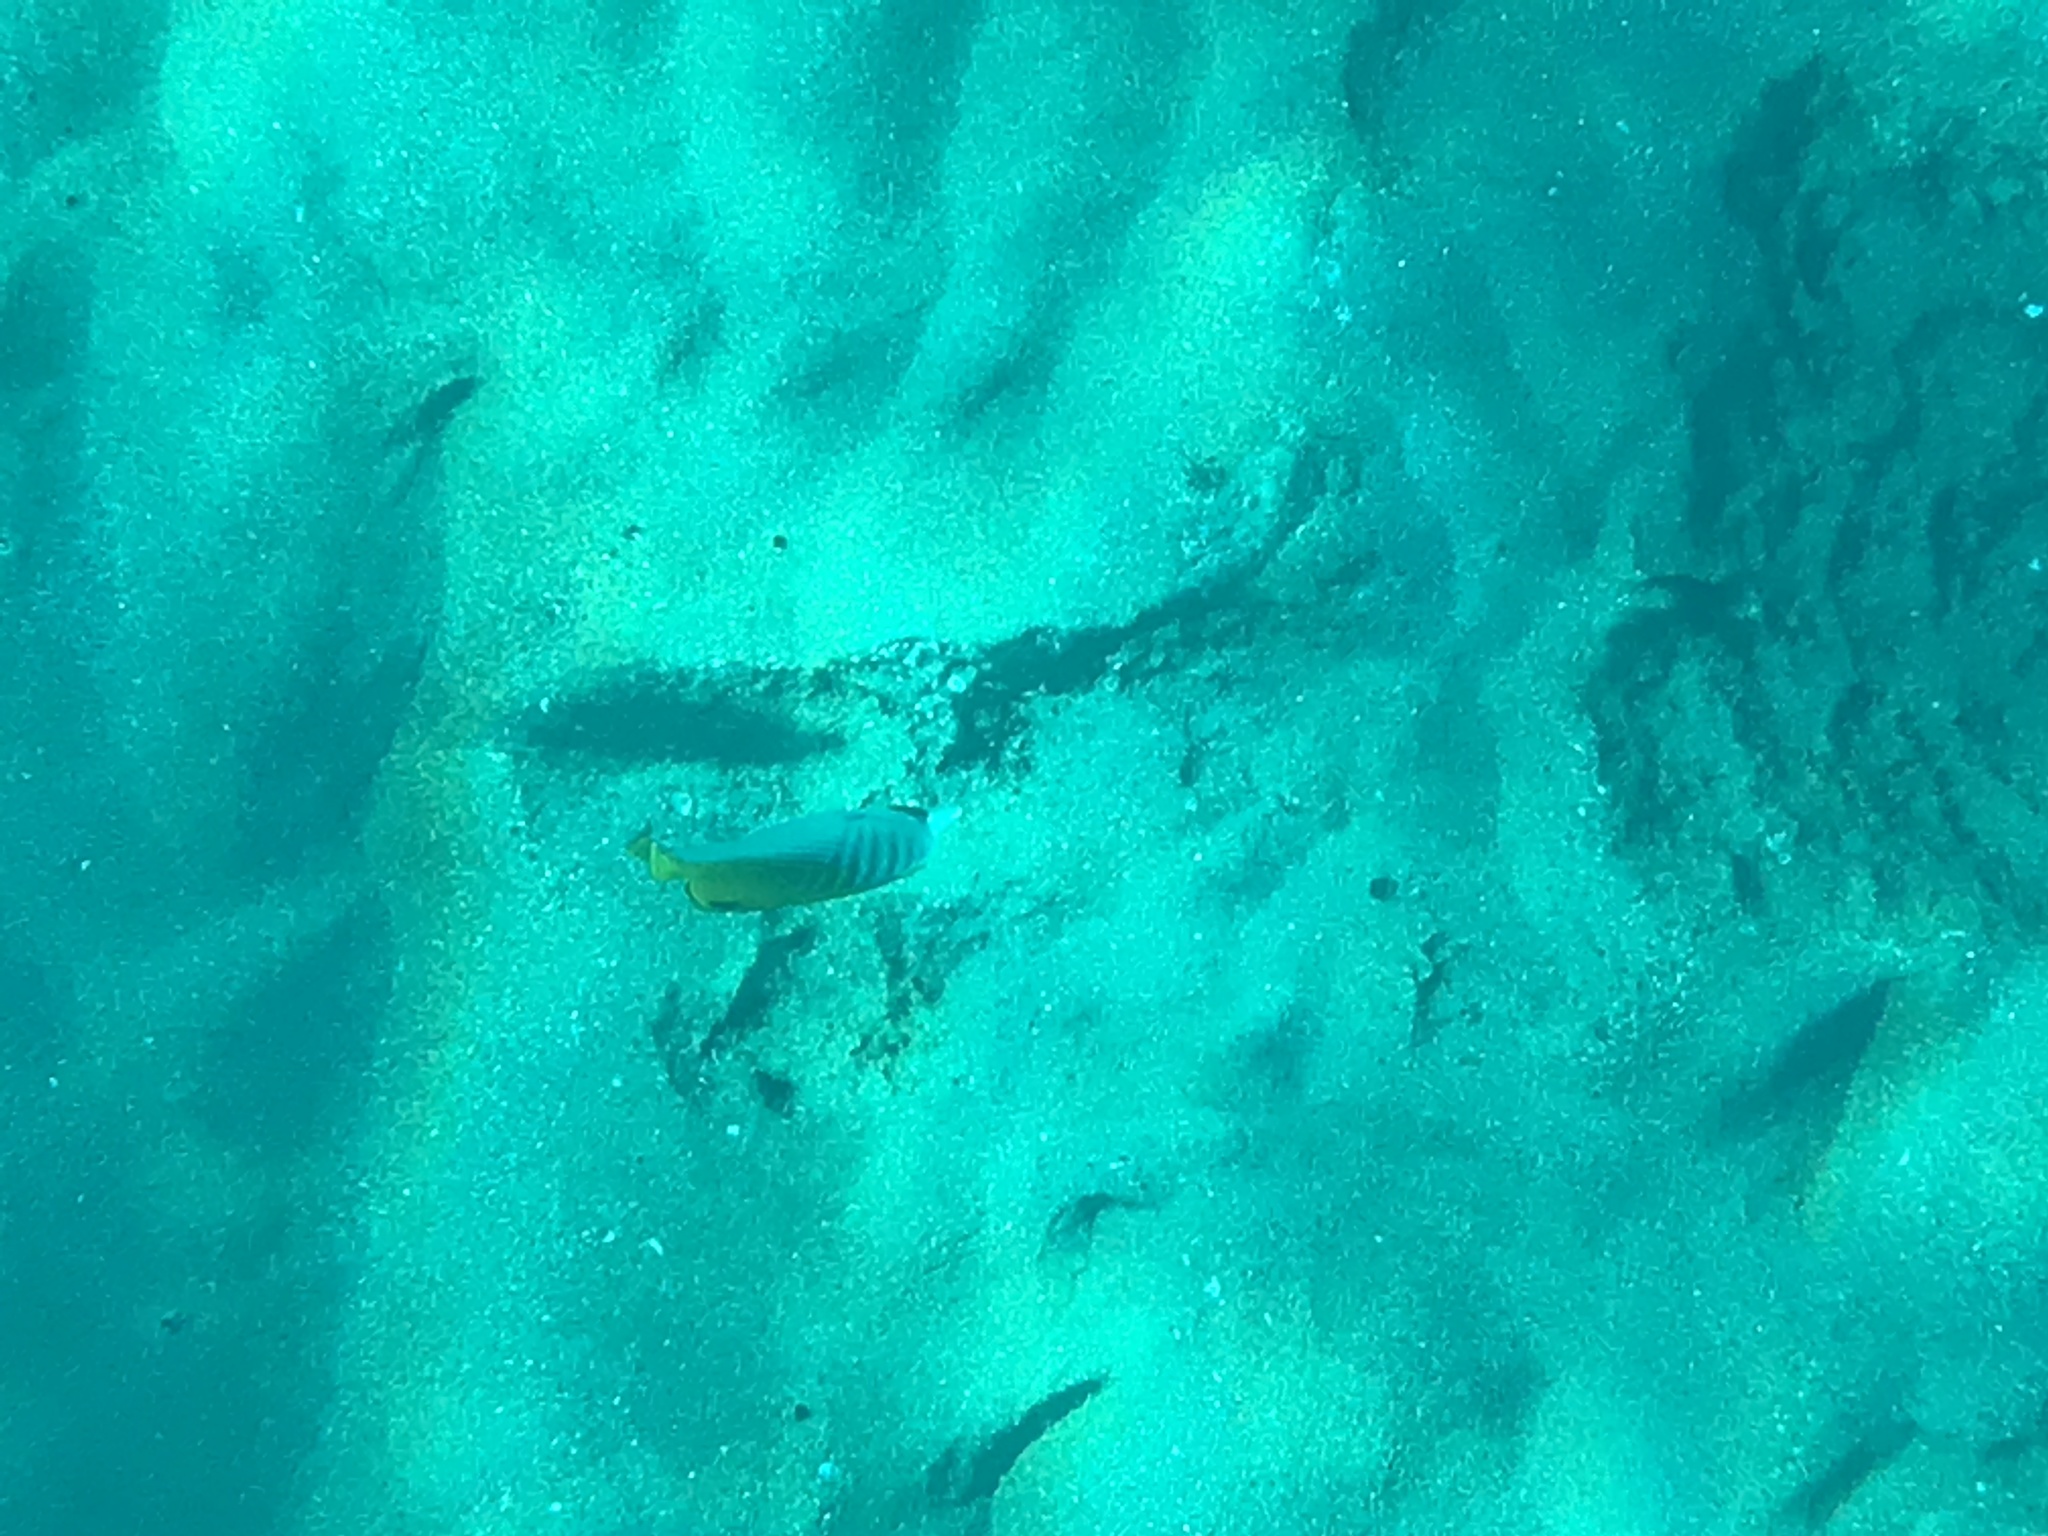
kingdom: Animalia
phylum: Chordata
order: Perciformes
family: Chaetodontidae
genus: Chaetodon
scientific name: Chaetodon auriga
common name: Threadfin butterflyfish
